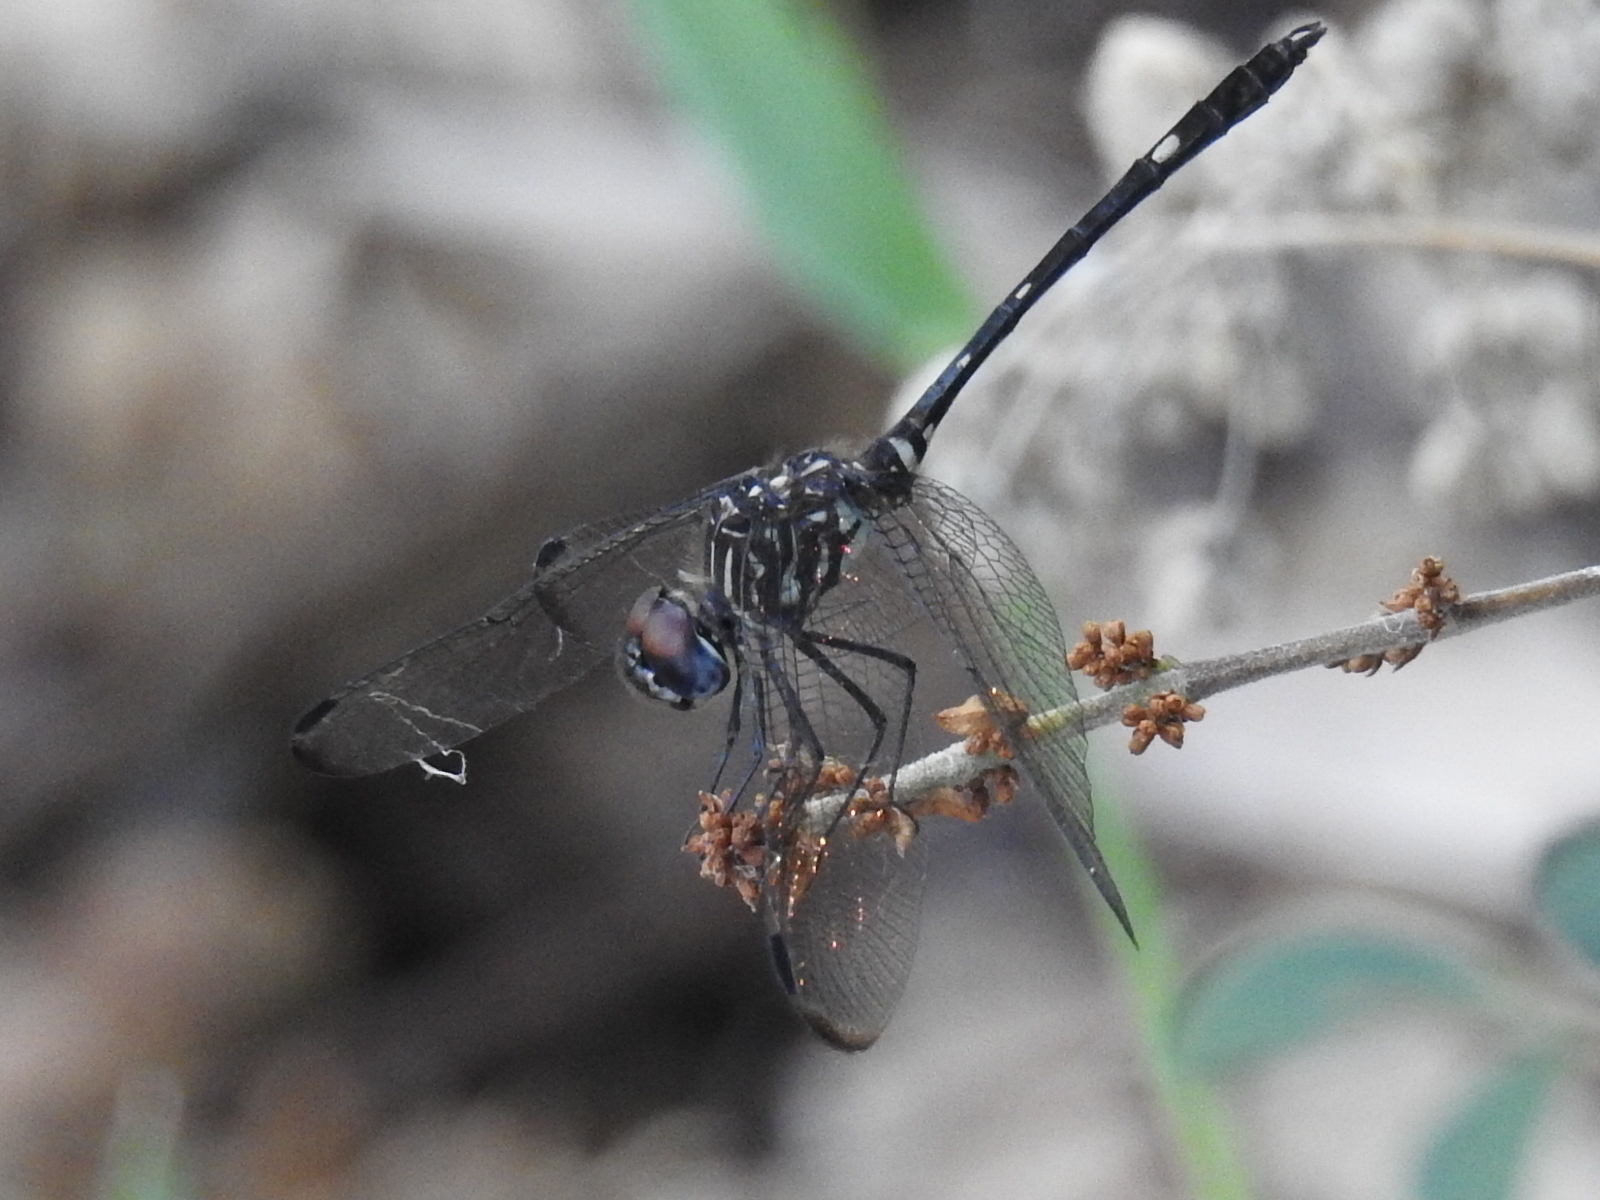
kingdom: Animalia
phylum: Arthropoda
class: Insecta
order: Odonata
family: Libellulidae
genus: Dythemis
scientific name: Dythemis velox
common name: Swift setwing
